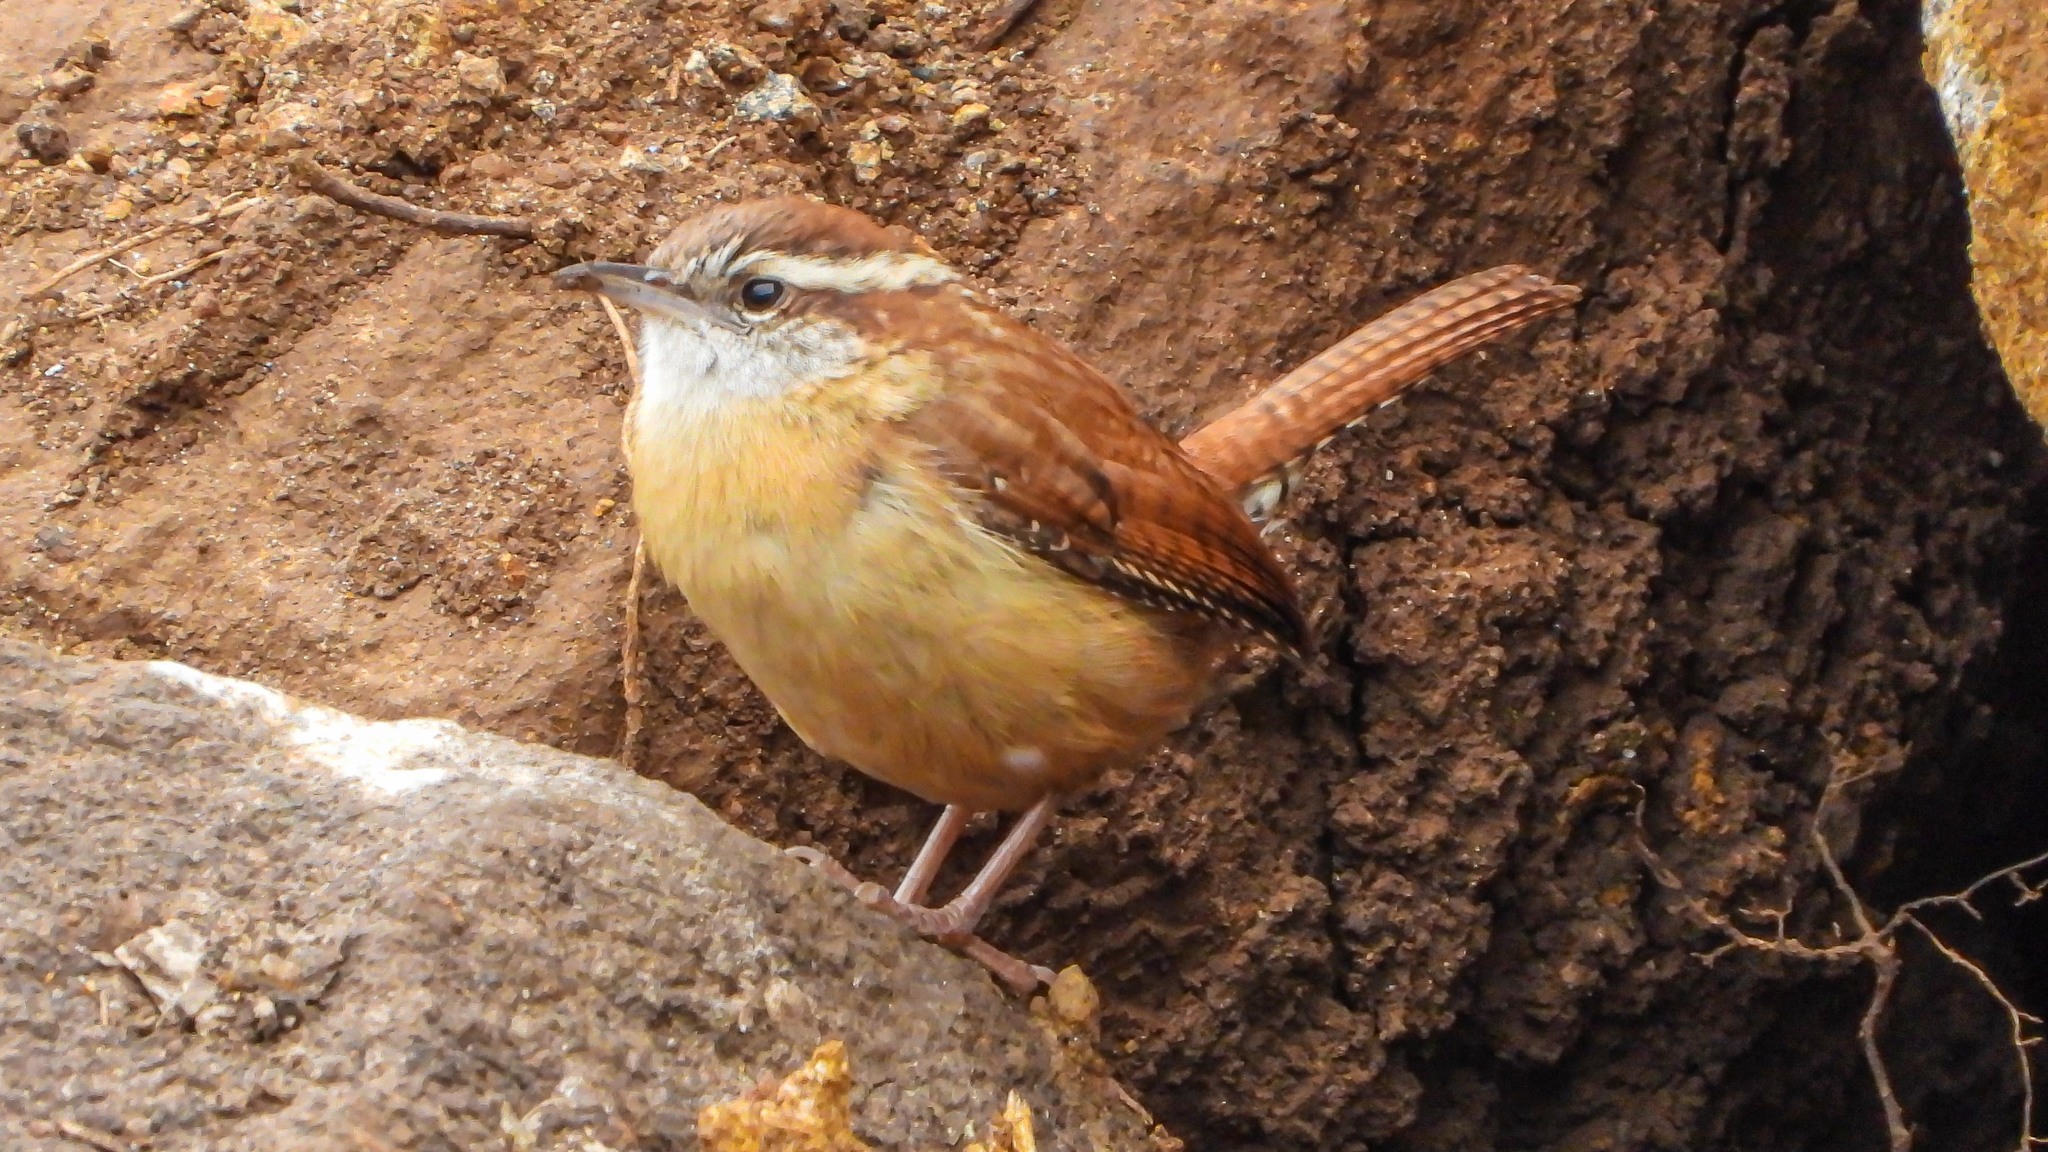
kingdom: Animalia
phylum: Chordata
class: Aves
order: Passeriformes
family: Troglodytidae
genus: Thryothorus
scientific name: Thryothorus ludovicianus
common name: Carolina wren
